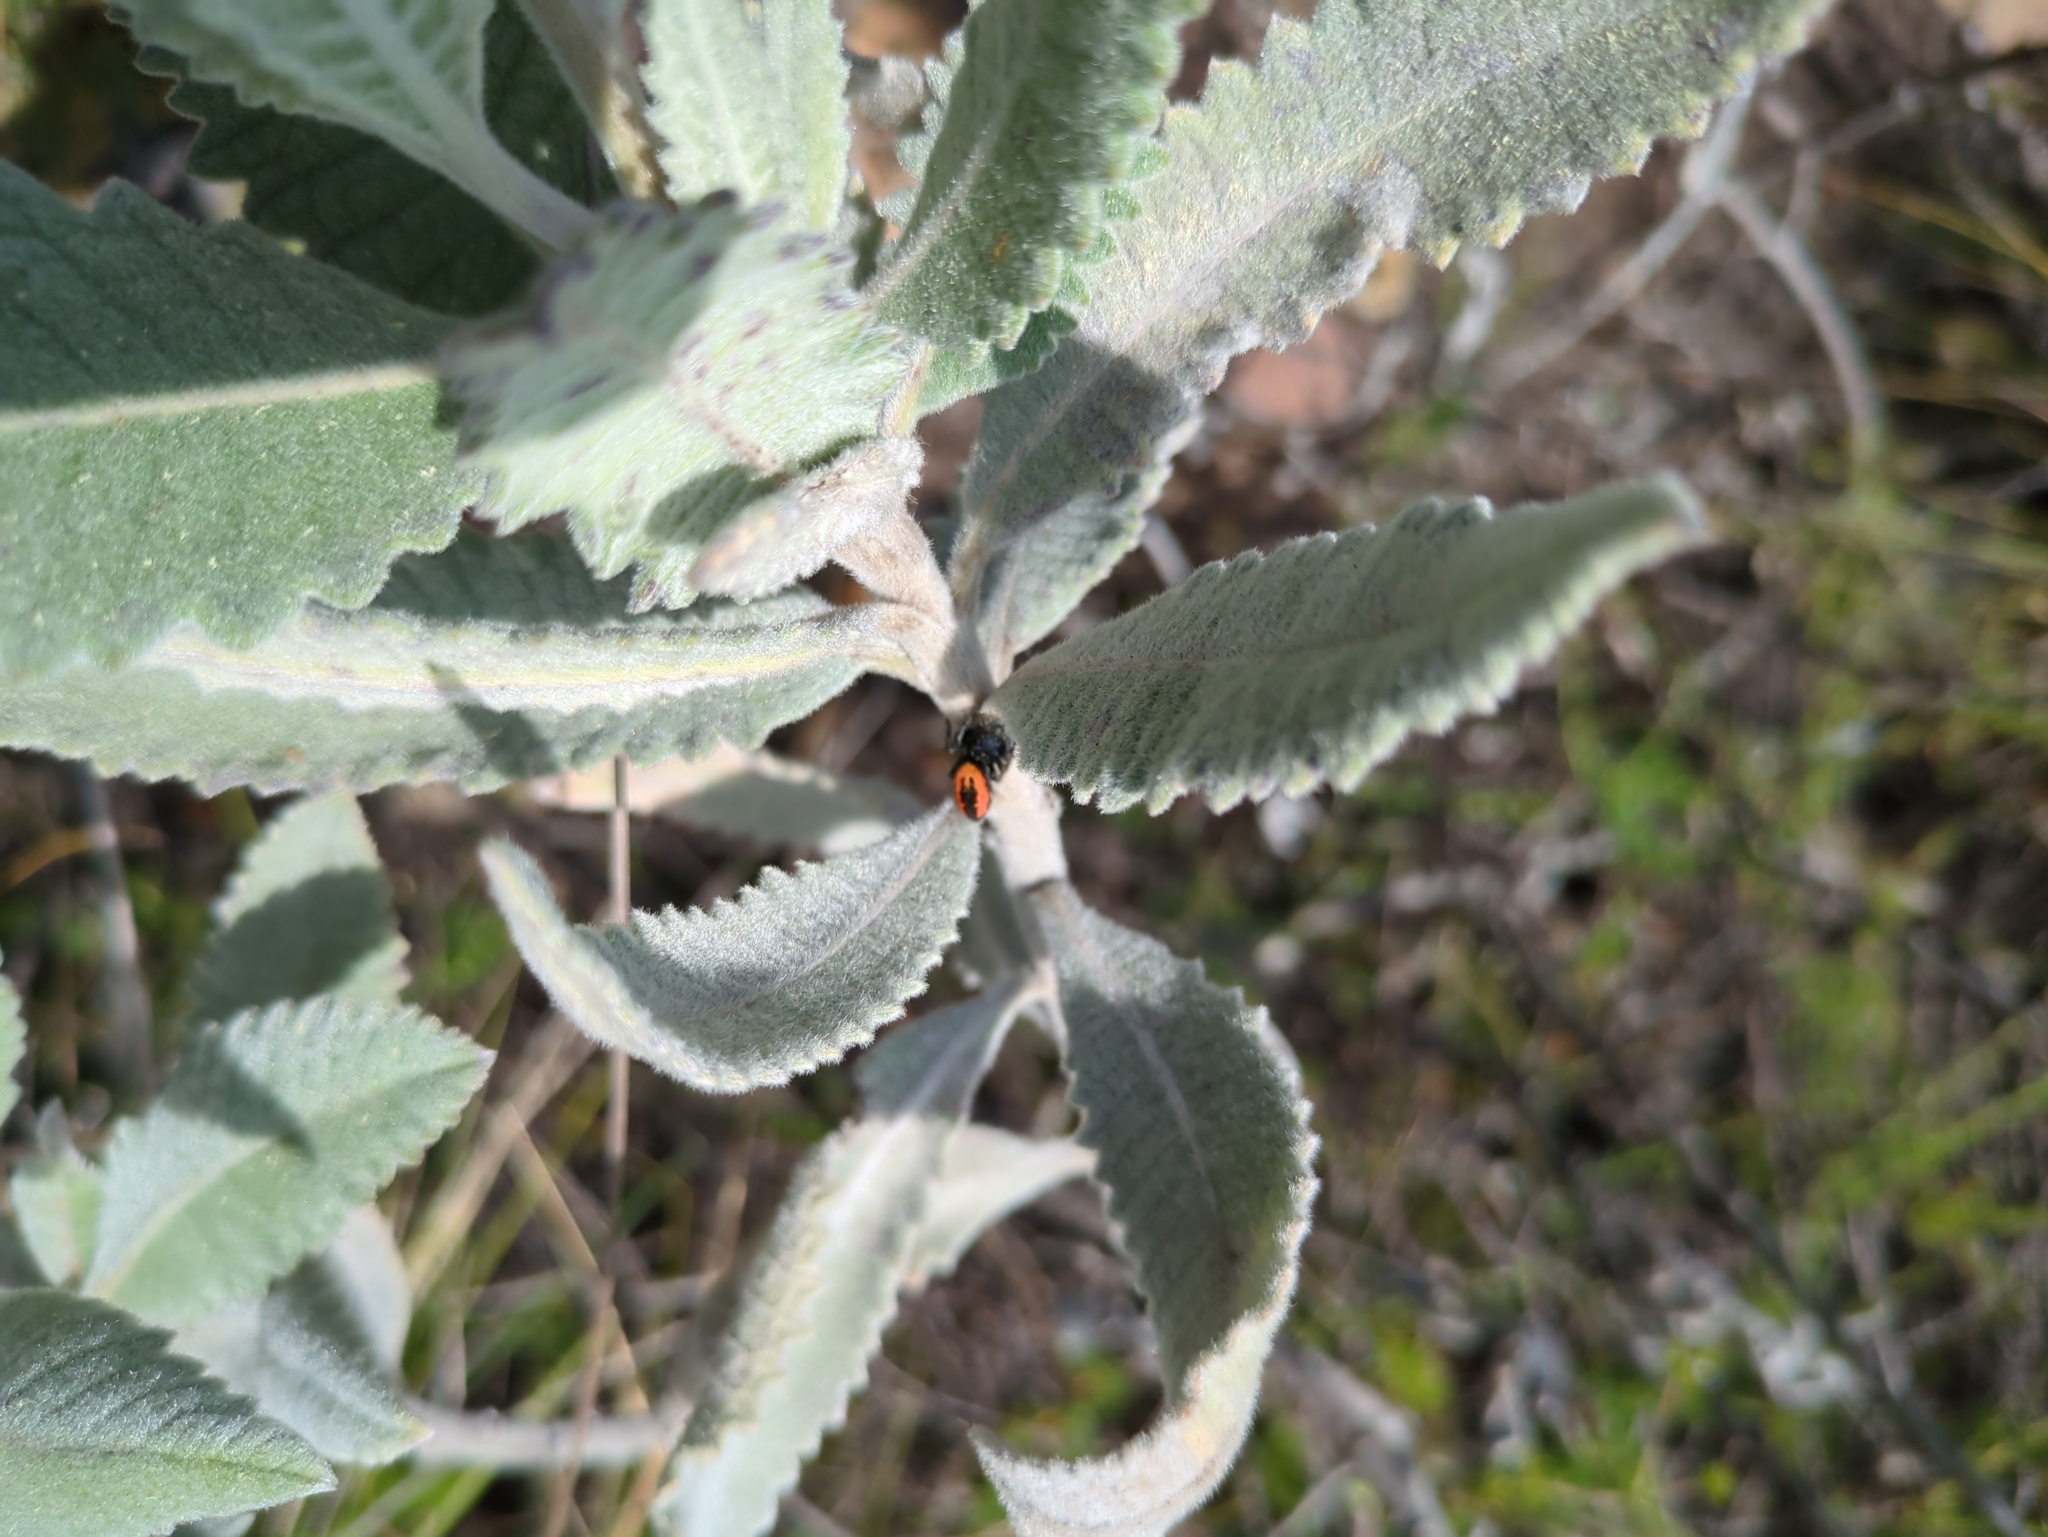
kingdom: Animalia
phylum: Arthropoda
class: Arachnida
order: Araneae
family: Salticidae
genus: Phidippus
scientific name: Phidippus johnsoni
